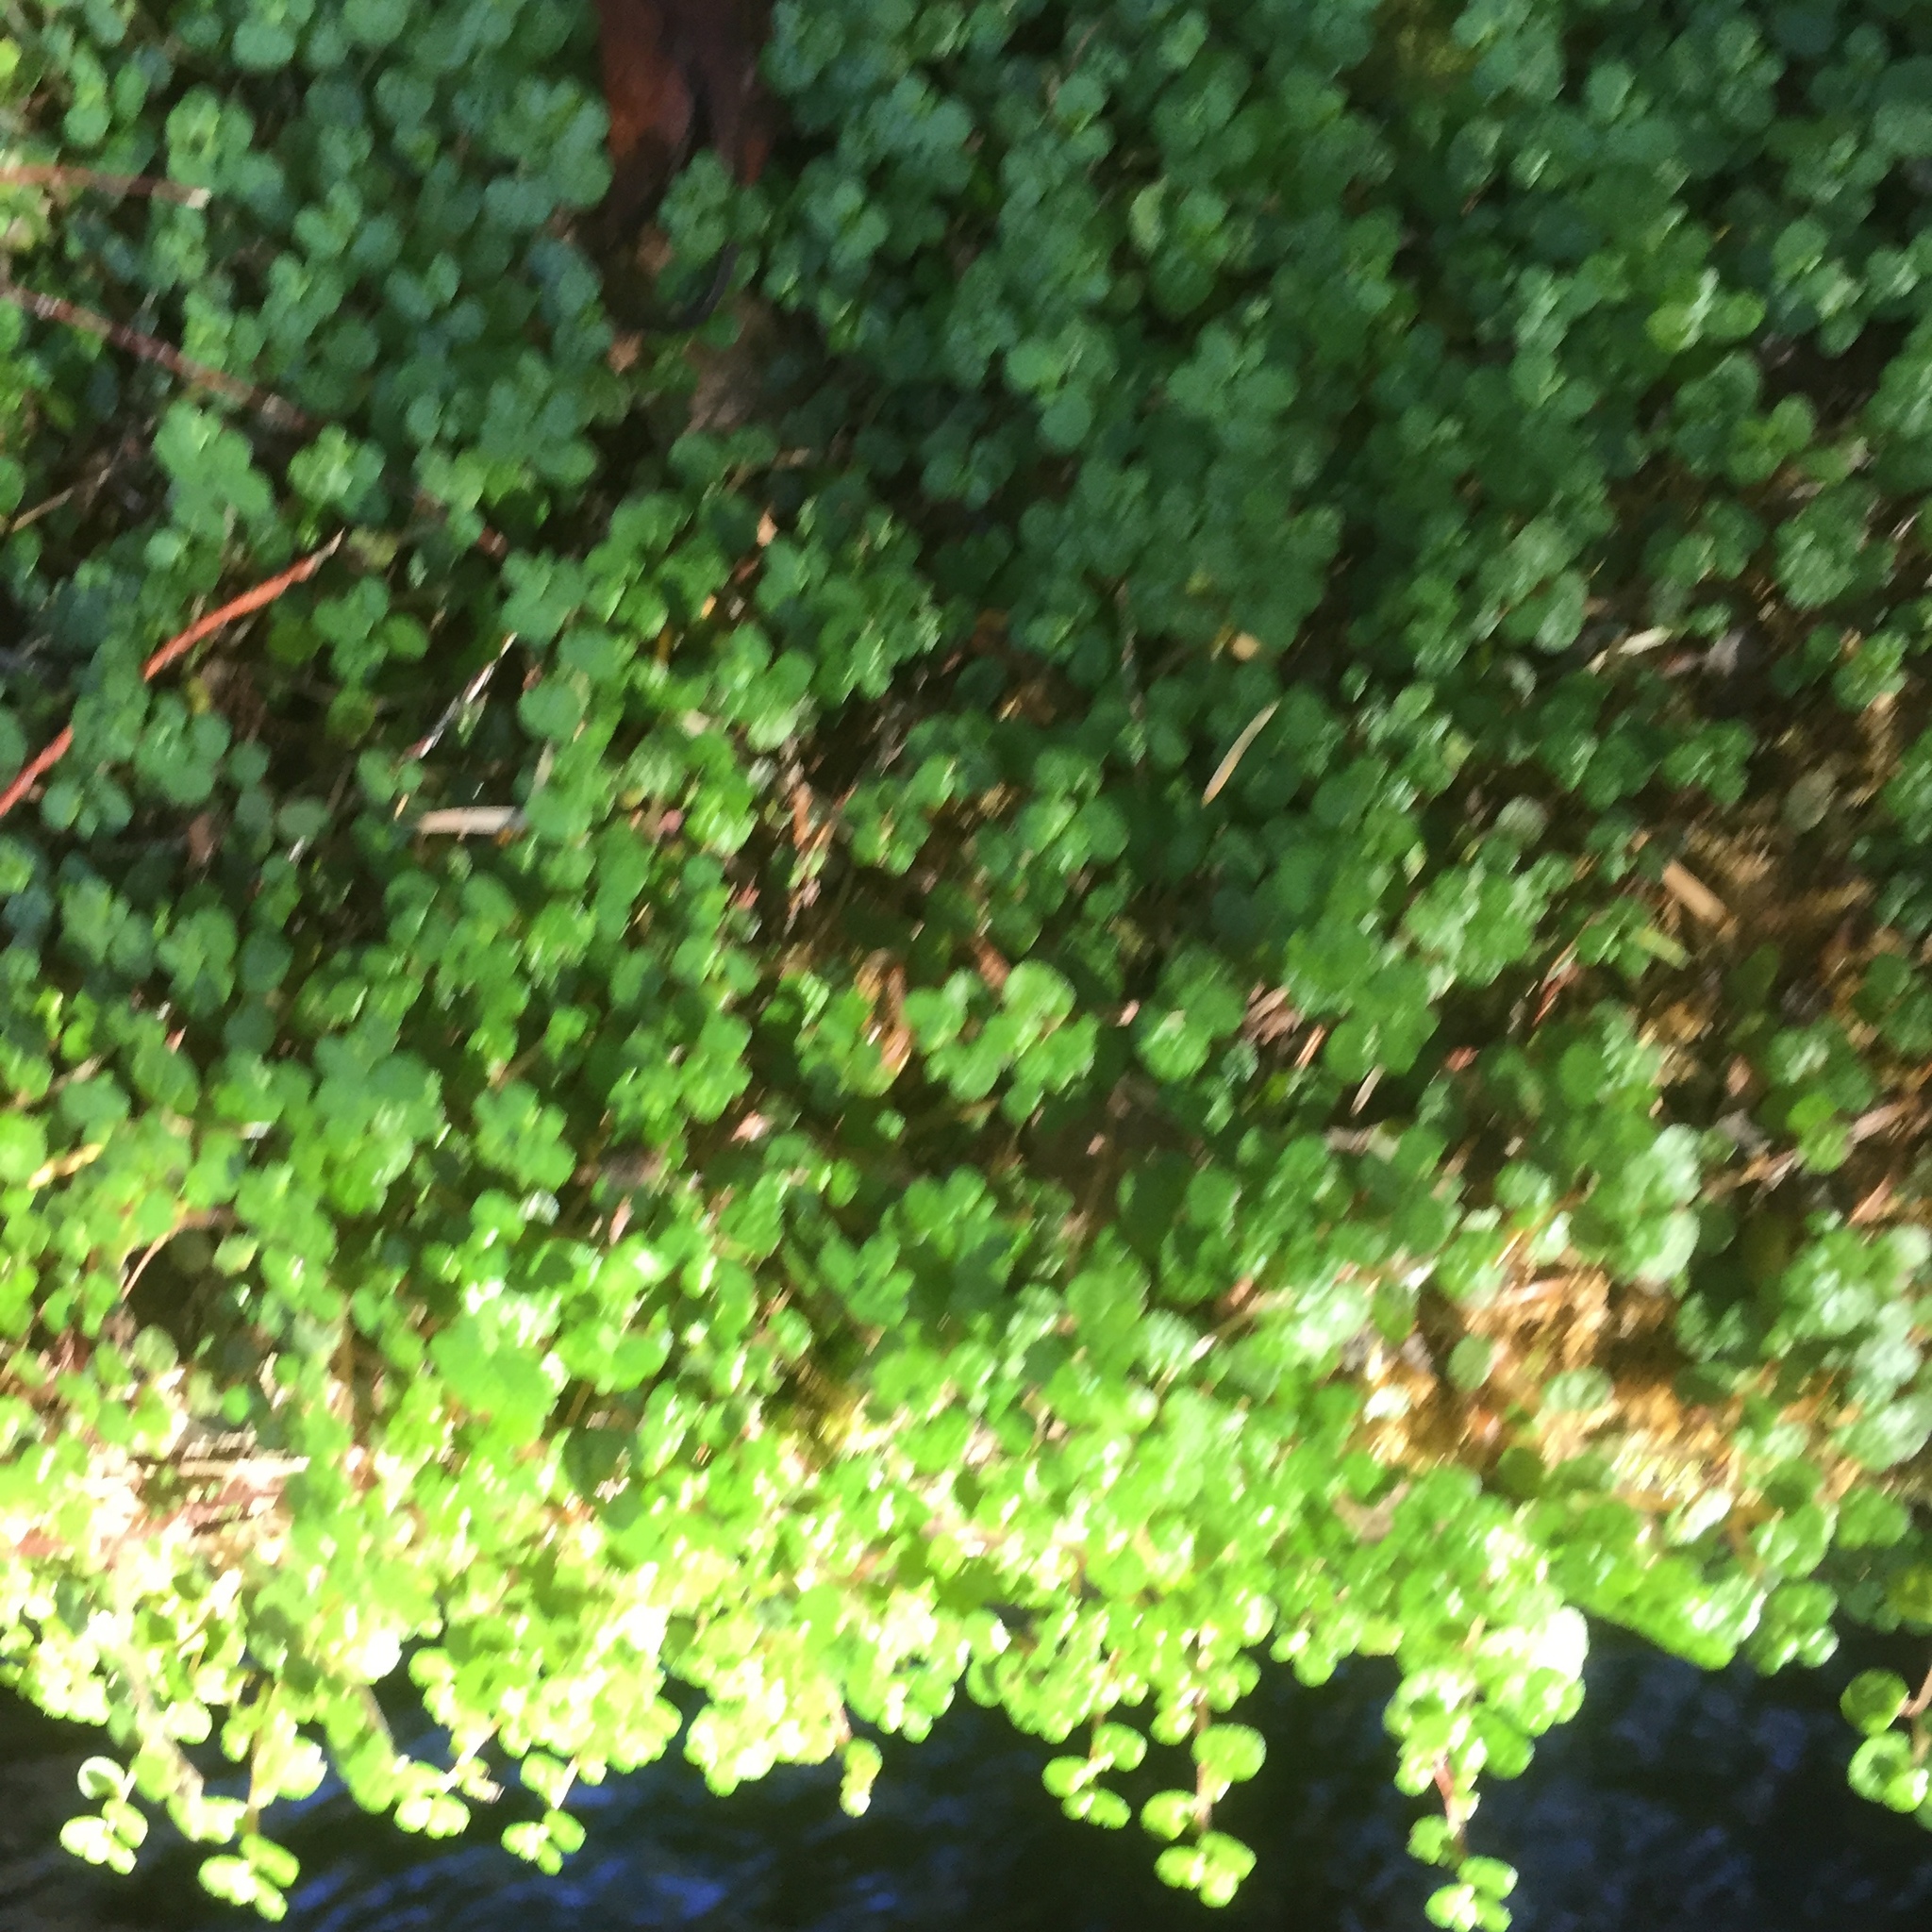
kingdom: Plantae
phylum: Tracheophyta
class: Magnoliopsida
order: Rosales
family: Urticaceae
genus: Soleirolia
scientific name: Soleirolia soleirolii
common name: Mind-your-own-business
